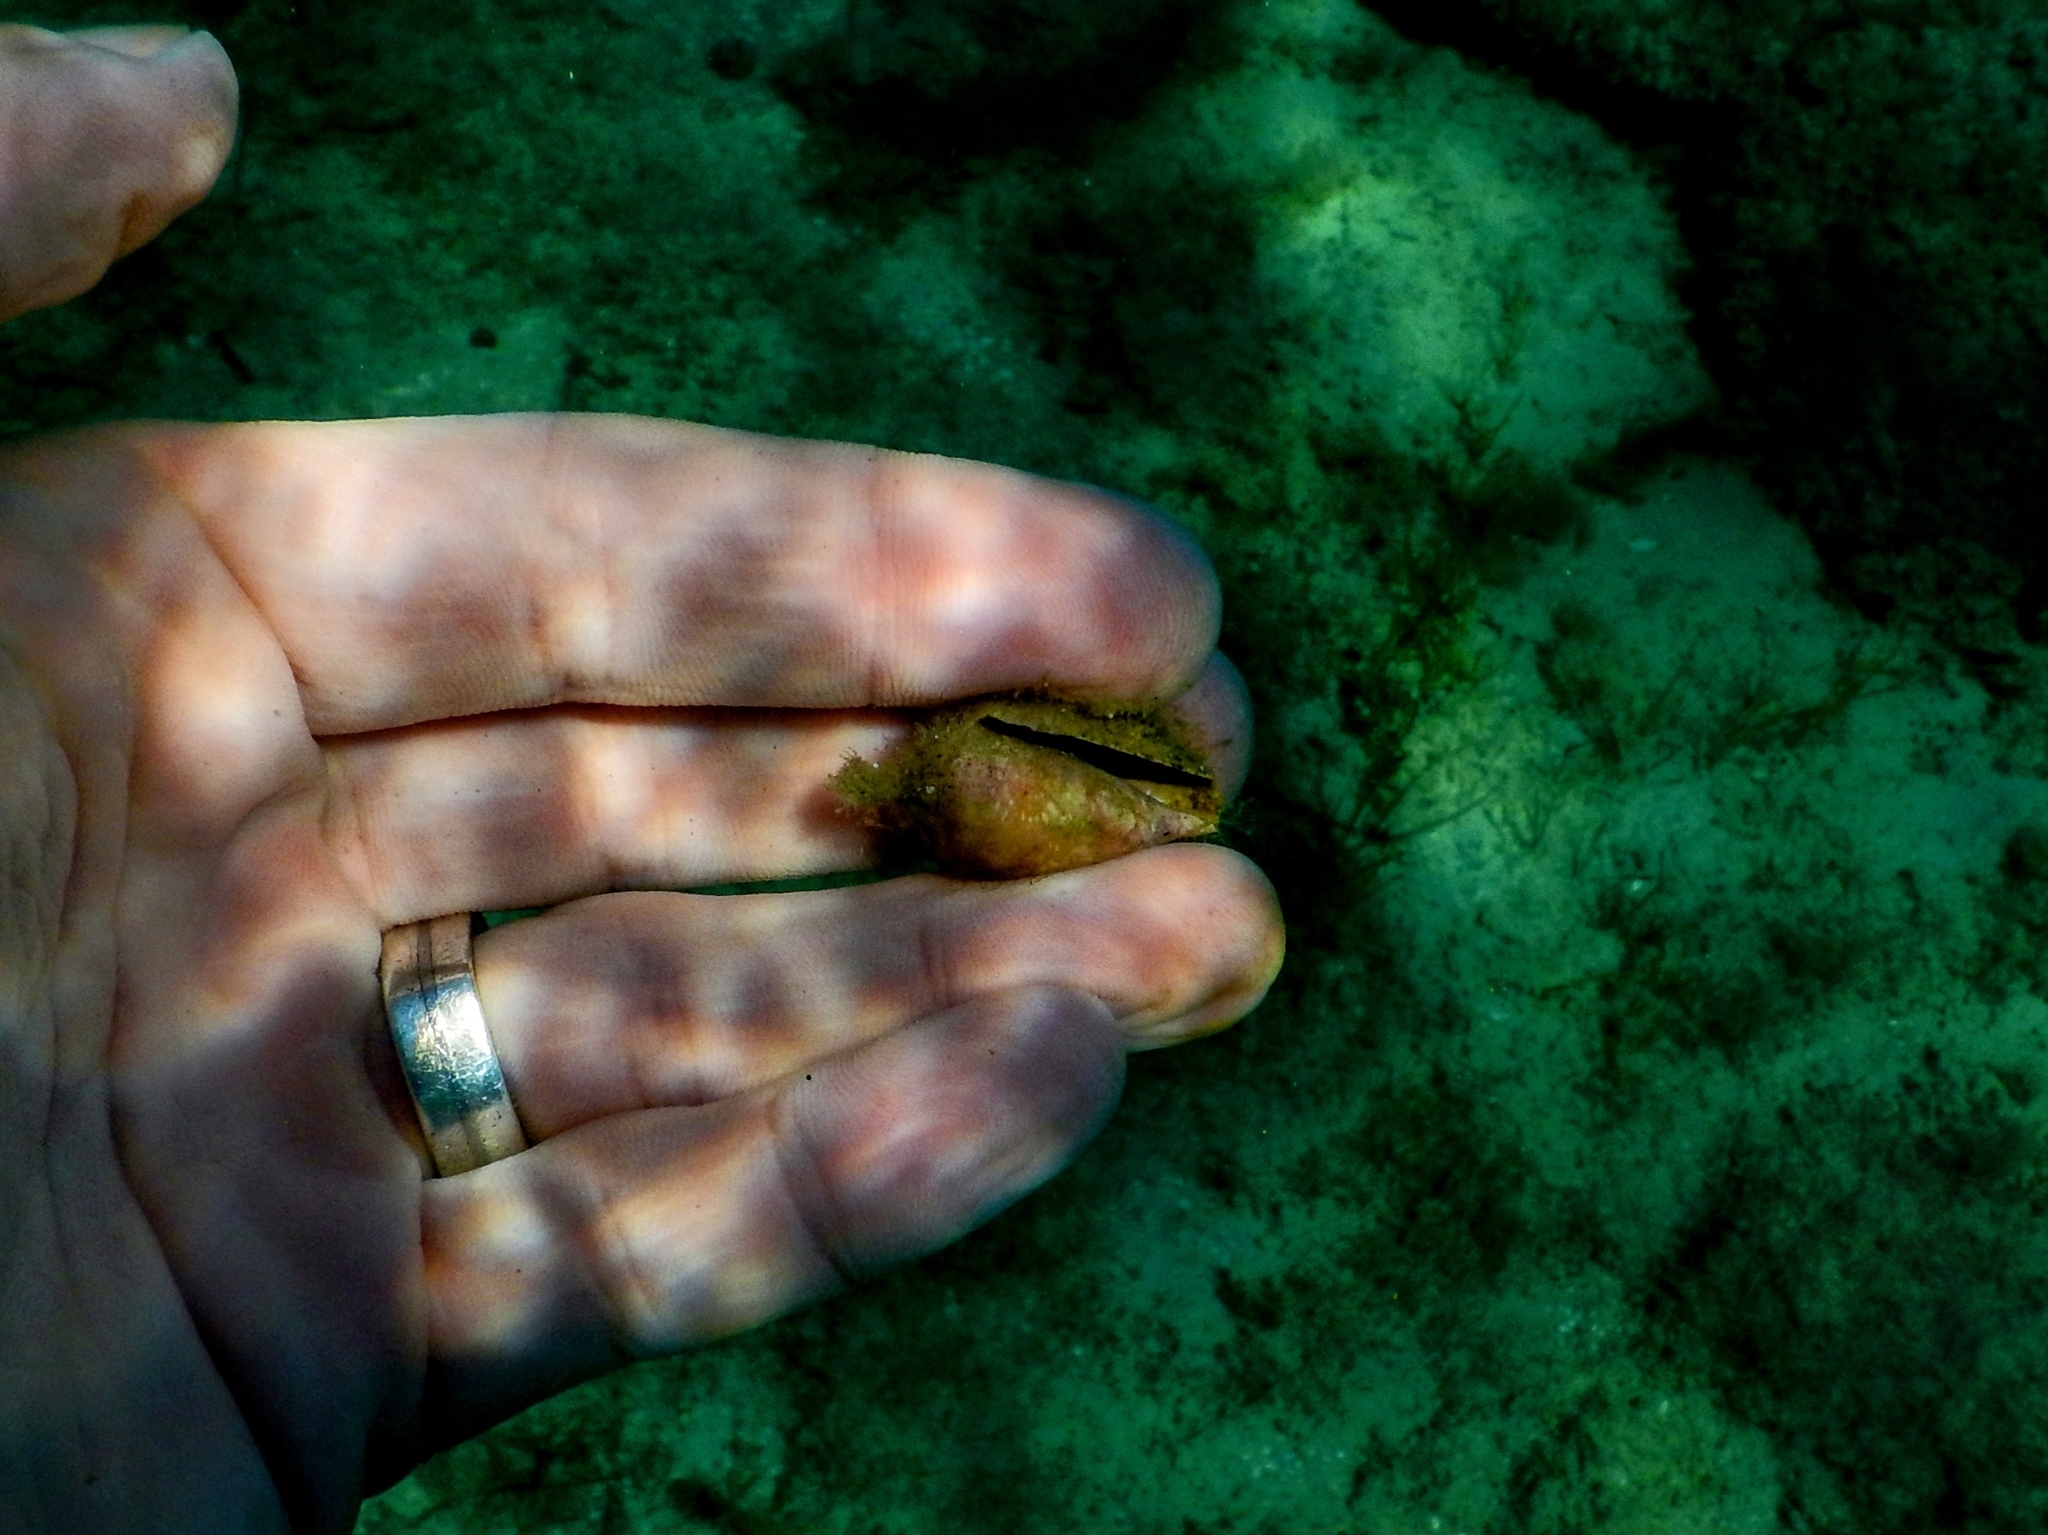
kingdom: Animalia
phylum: Mollusca
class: Gastropoda
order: Neogastropoda
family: Conidae
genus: Conus
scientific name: Conus ventricosus
